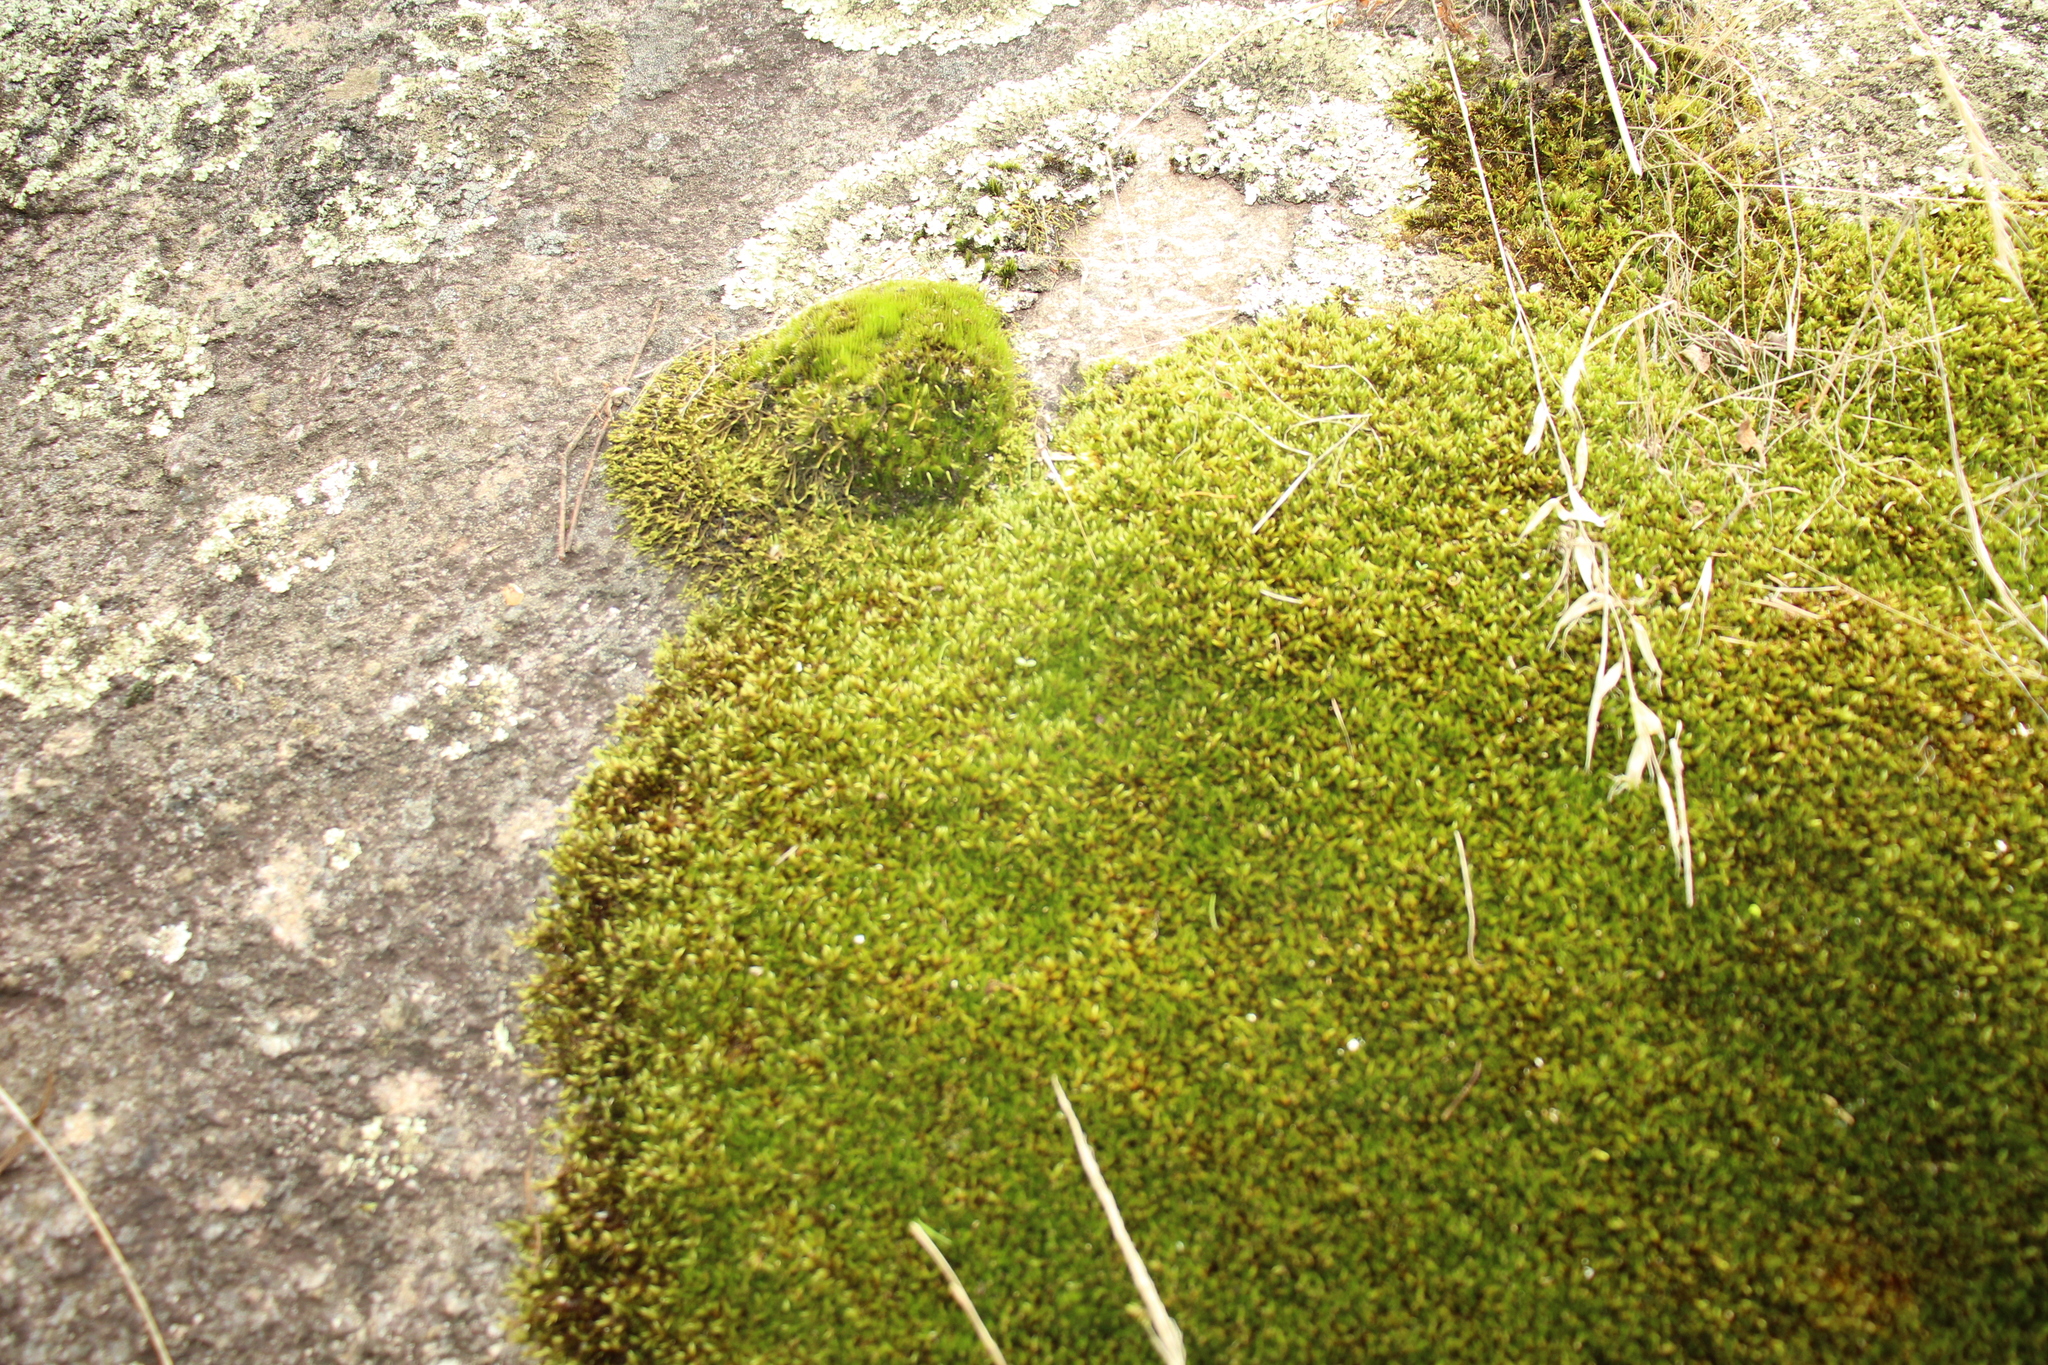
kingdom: Plantae
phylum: Bryophyta
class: Bryopsida
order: Hypnales
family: Sematophyllaceae
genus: Sematophyllum
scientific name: Sematophyllum homomallum
